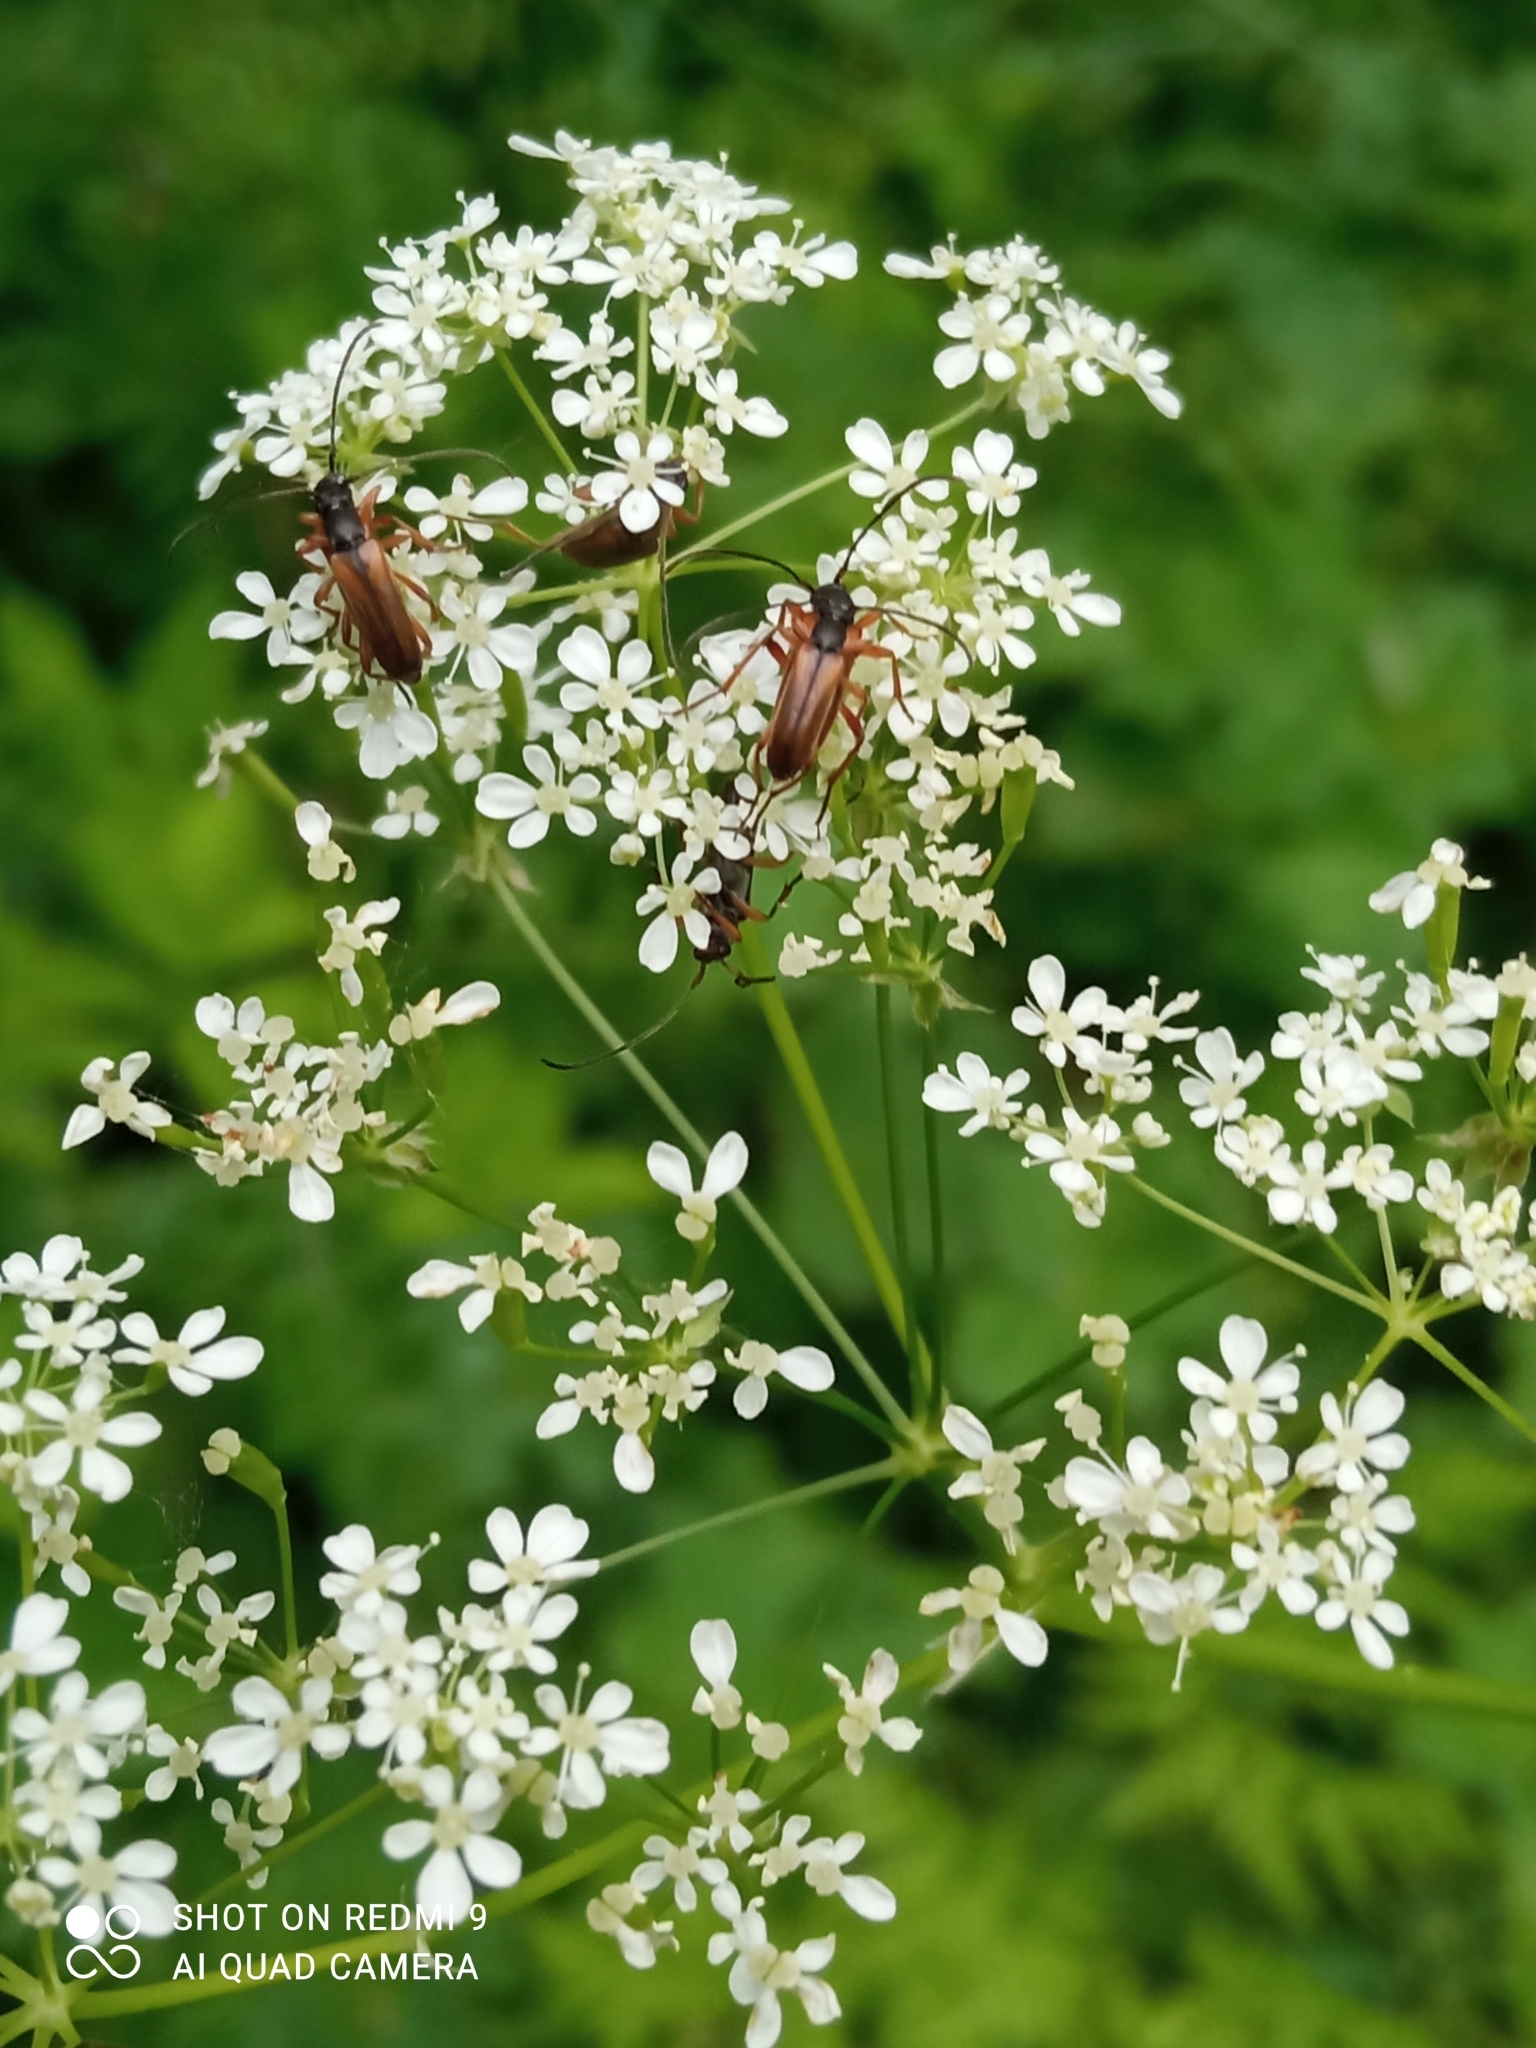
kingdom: Animalia
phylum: Arthropoda
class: Insecta
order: Coleoptera
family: Cerambycidae
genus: Alosterna
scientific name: Alosterna tabacicolor
